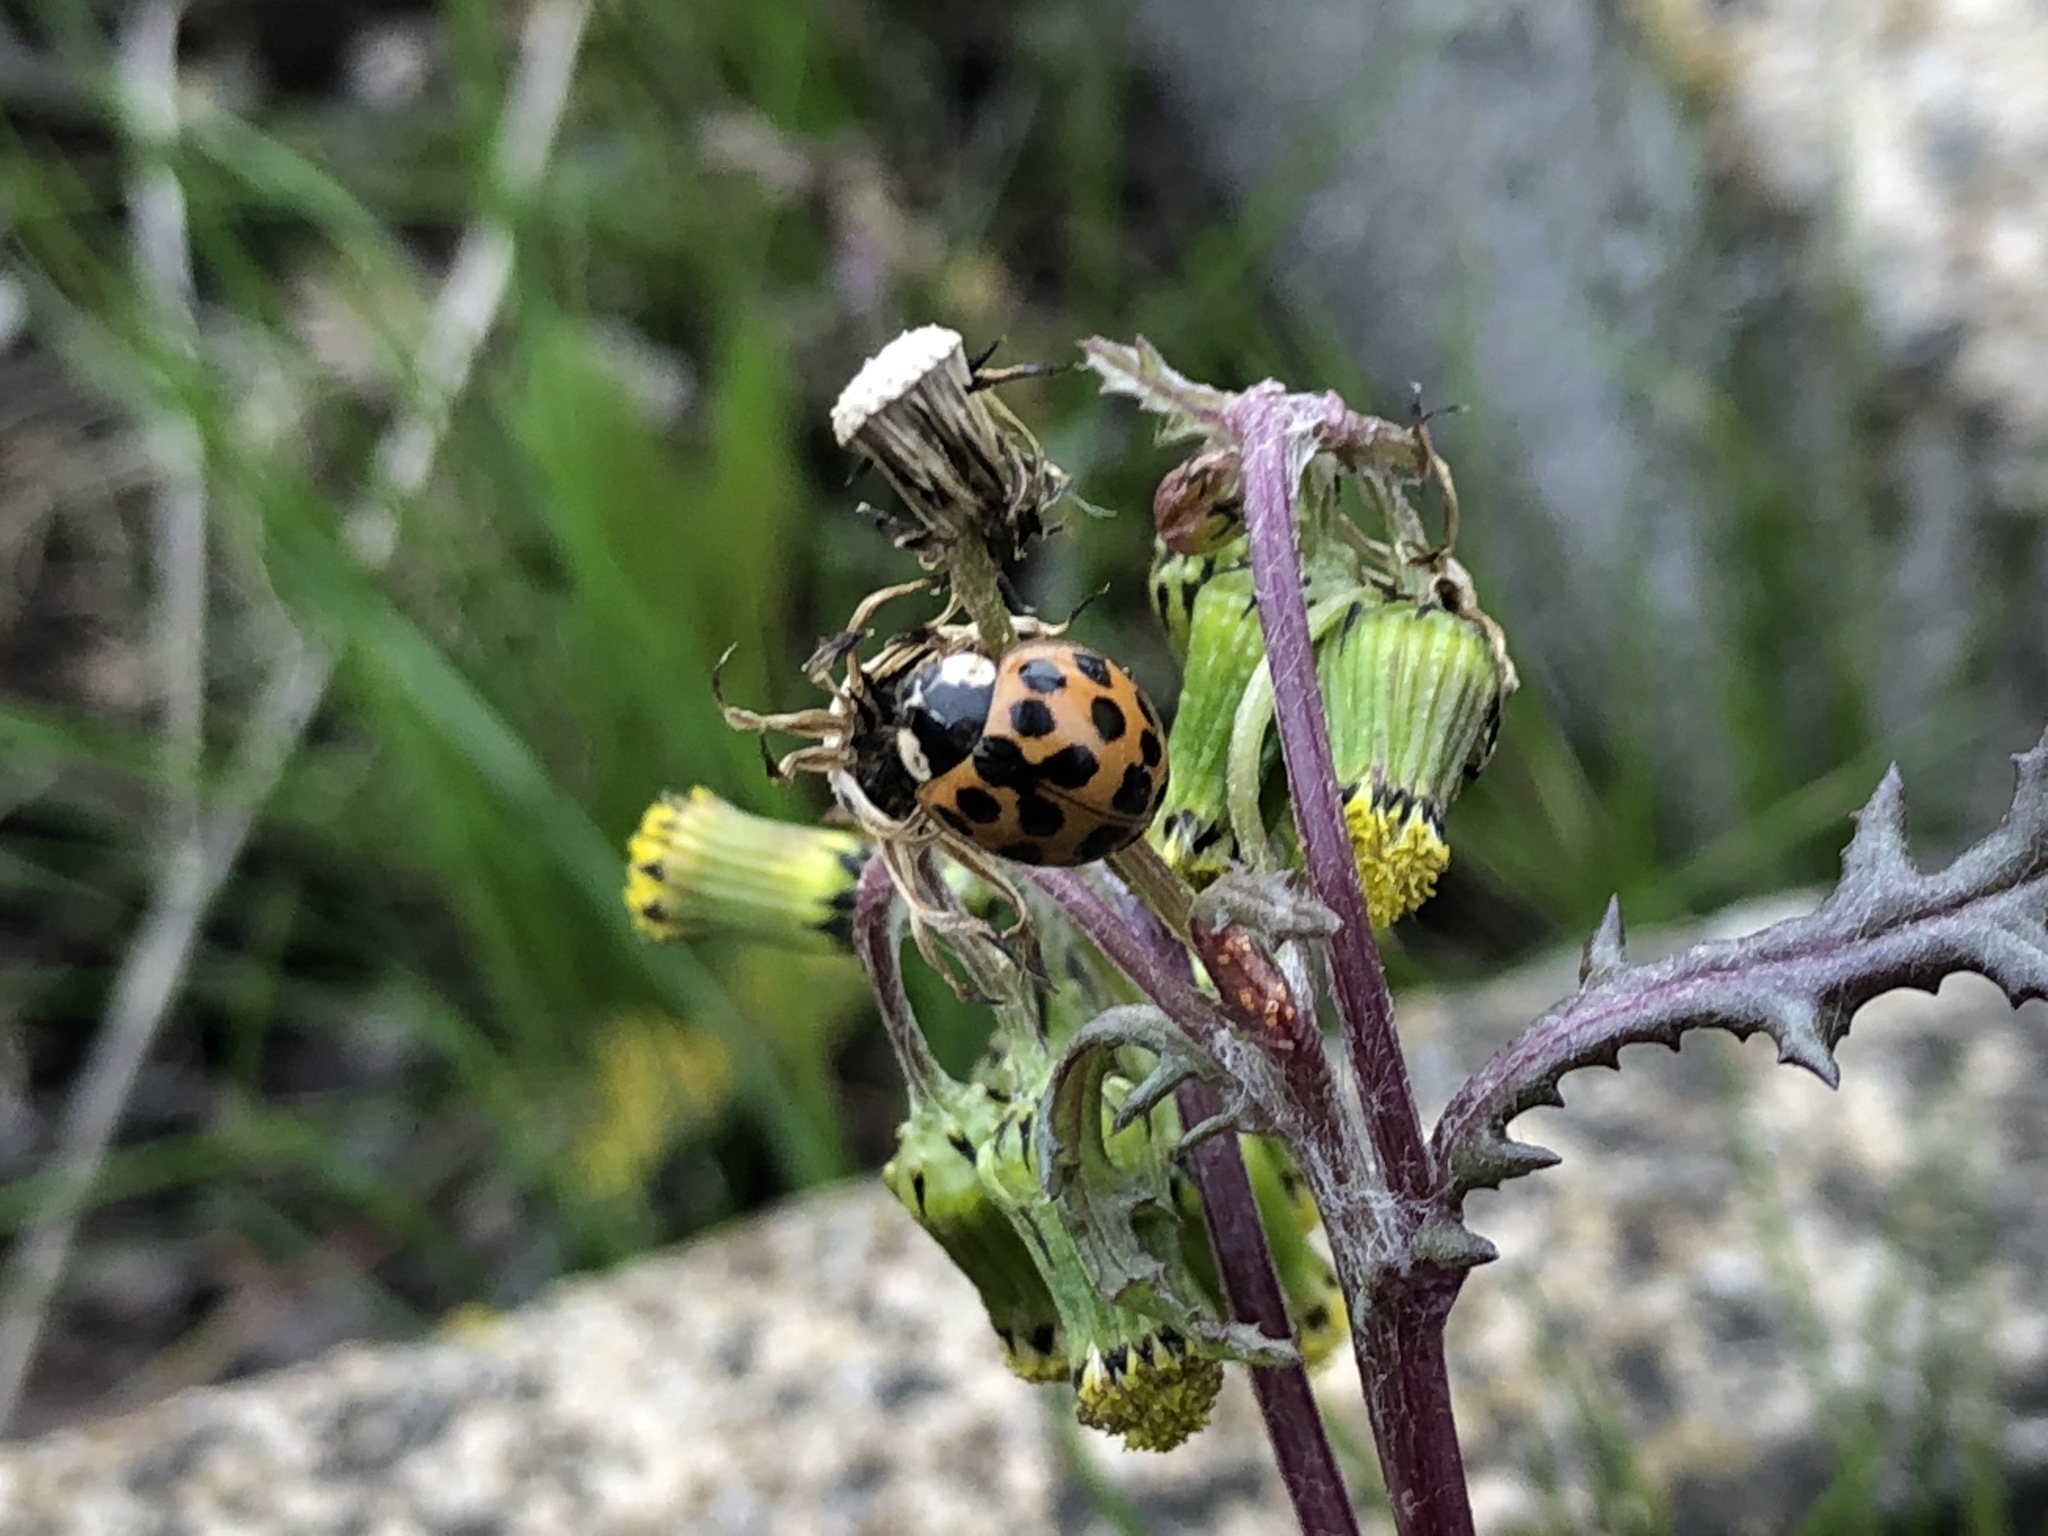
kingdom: Animalia
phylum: Arthropoda
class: Insecta
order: Coleoptera
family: Coccinellidae
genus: Harmonia
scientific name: Harmonia axyridis
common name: Harlequin ladybird
